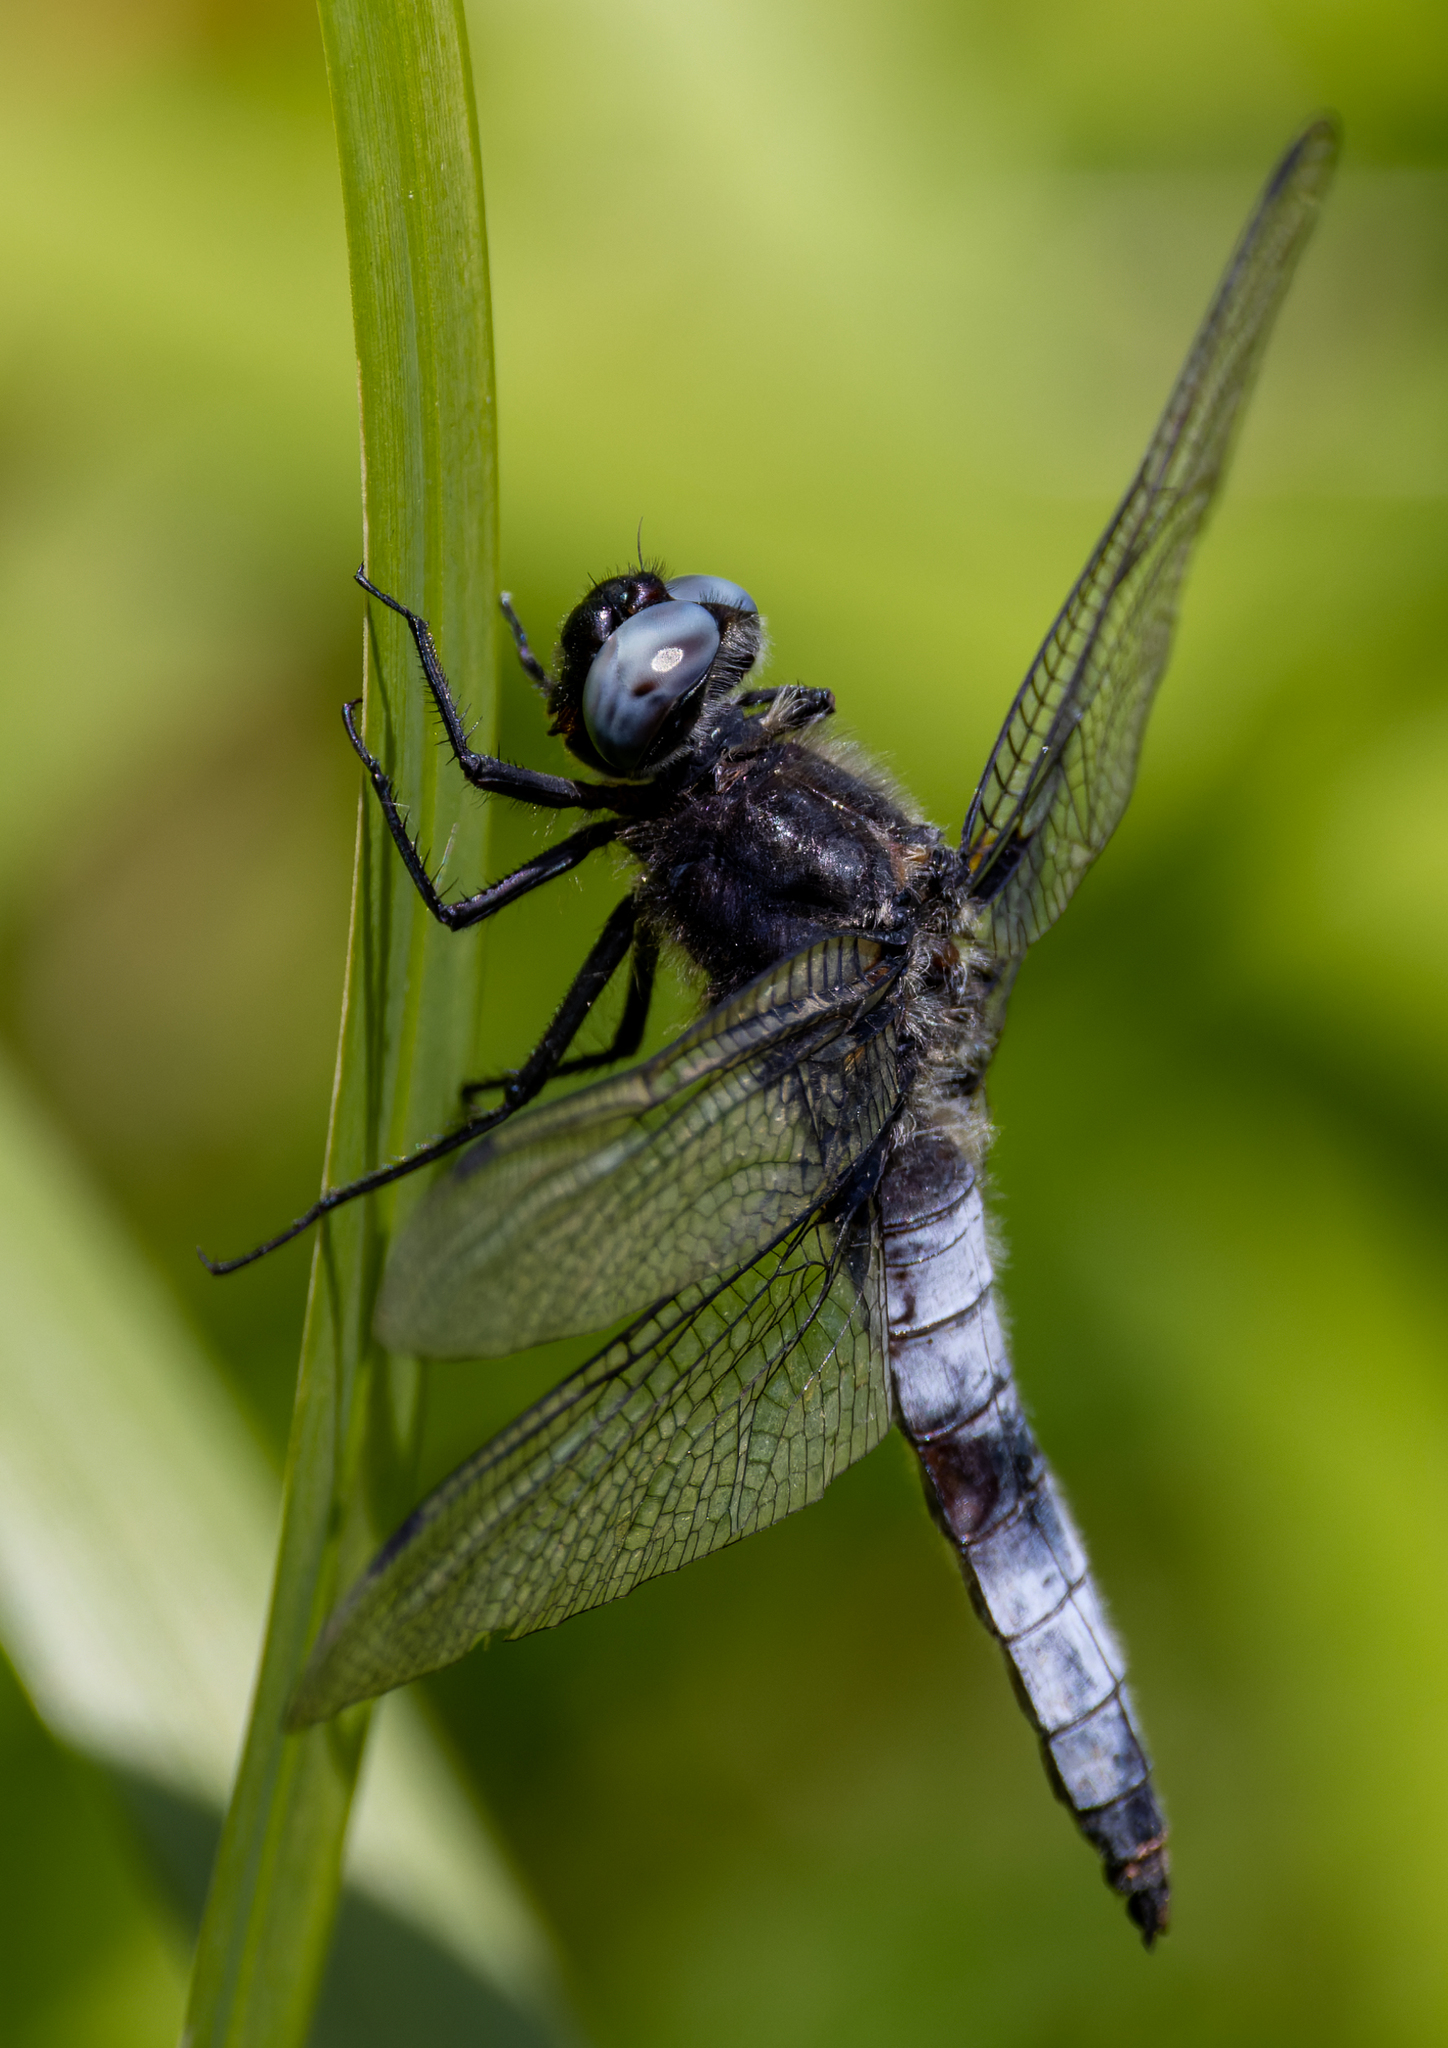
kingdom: Animalia
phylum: Arthropoda
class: Insecta
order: Odonata
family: Libellulidae
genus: Libellula
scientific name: Libellula fulva
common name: Blue chaser
